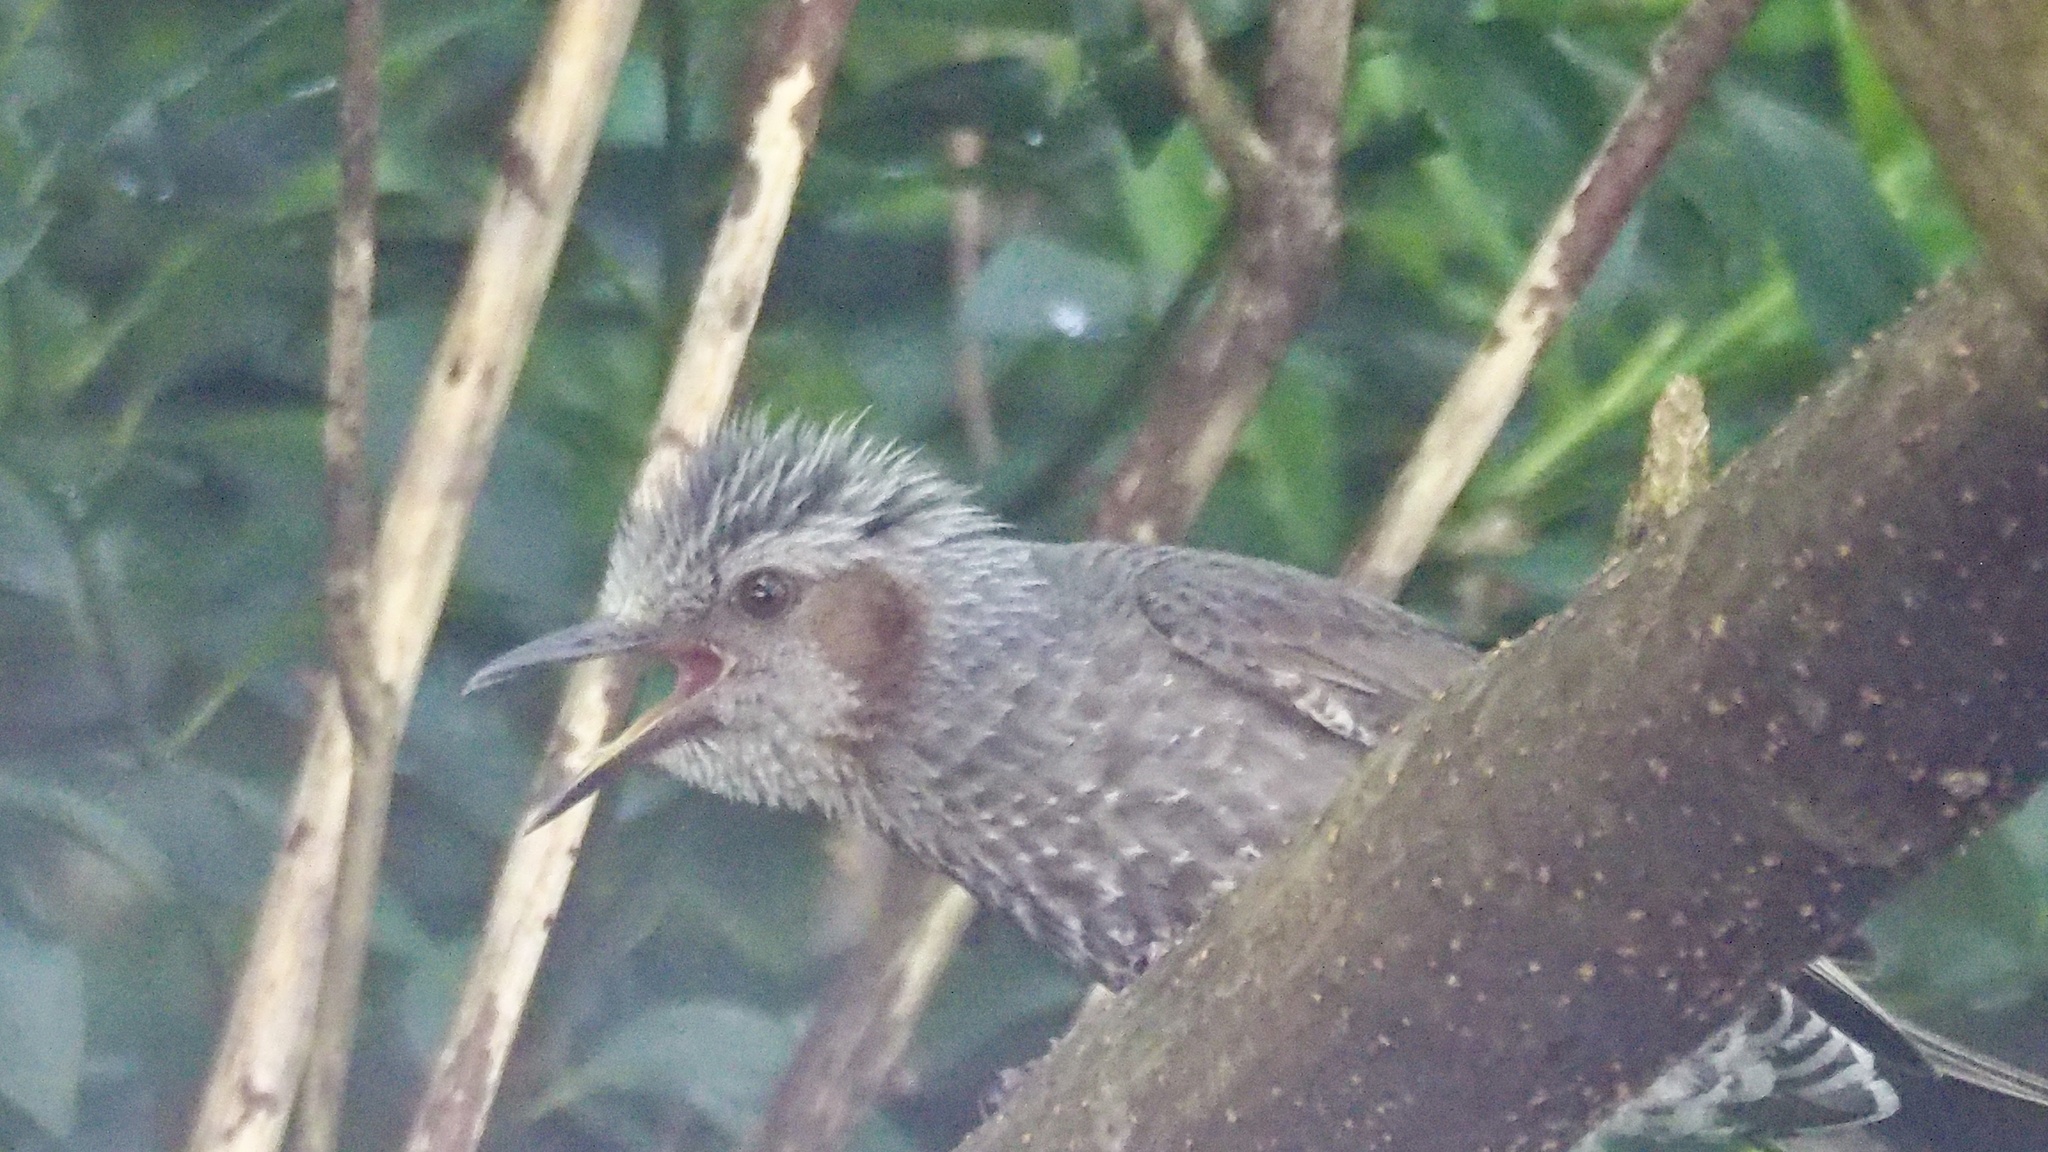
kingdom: Animalia
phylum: Chordata
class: Aves
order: Passeriformes
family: Pycnonotidae
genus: Hypsipetes
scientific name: Hypsipetes amaurotis
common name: Brown-eared bulbul
